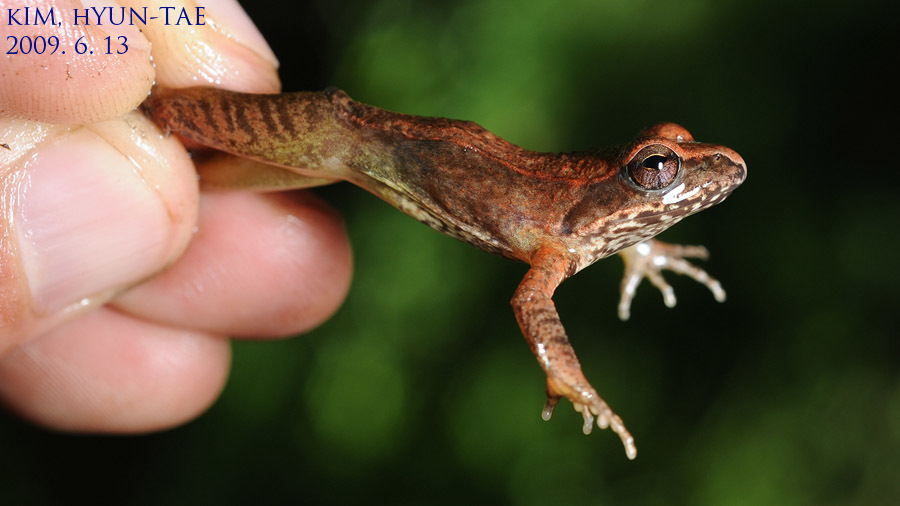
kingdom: Animalia
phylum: Chordata
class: Amphibia
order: Anura
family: Ranidae
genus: Rana
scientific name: Rana uenoi
